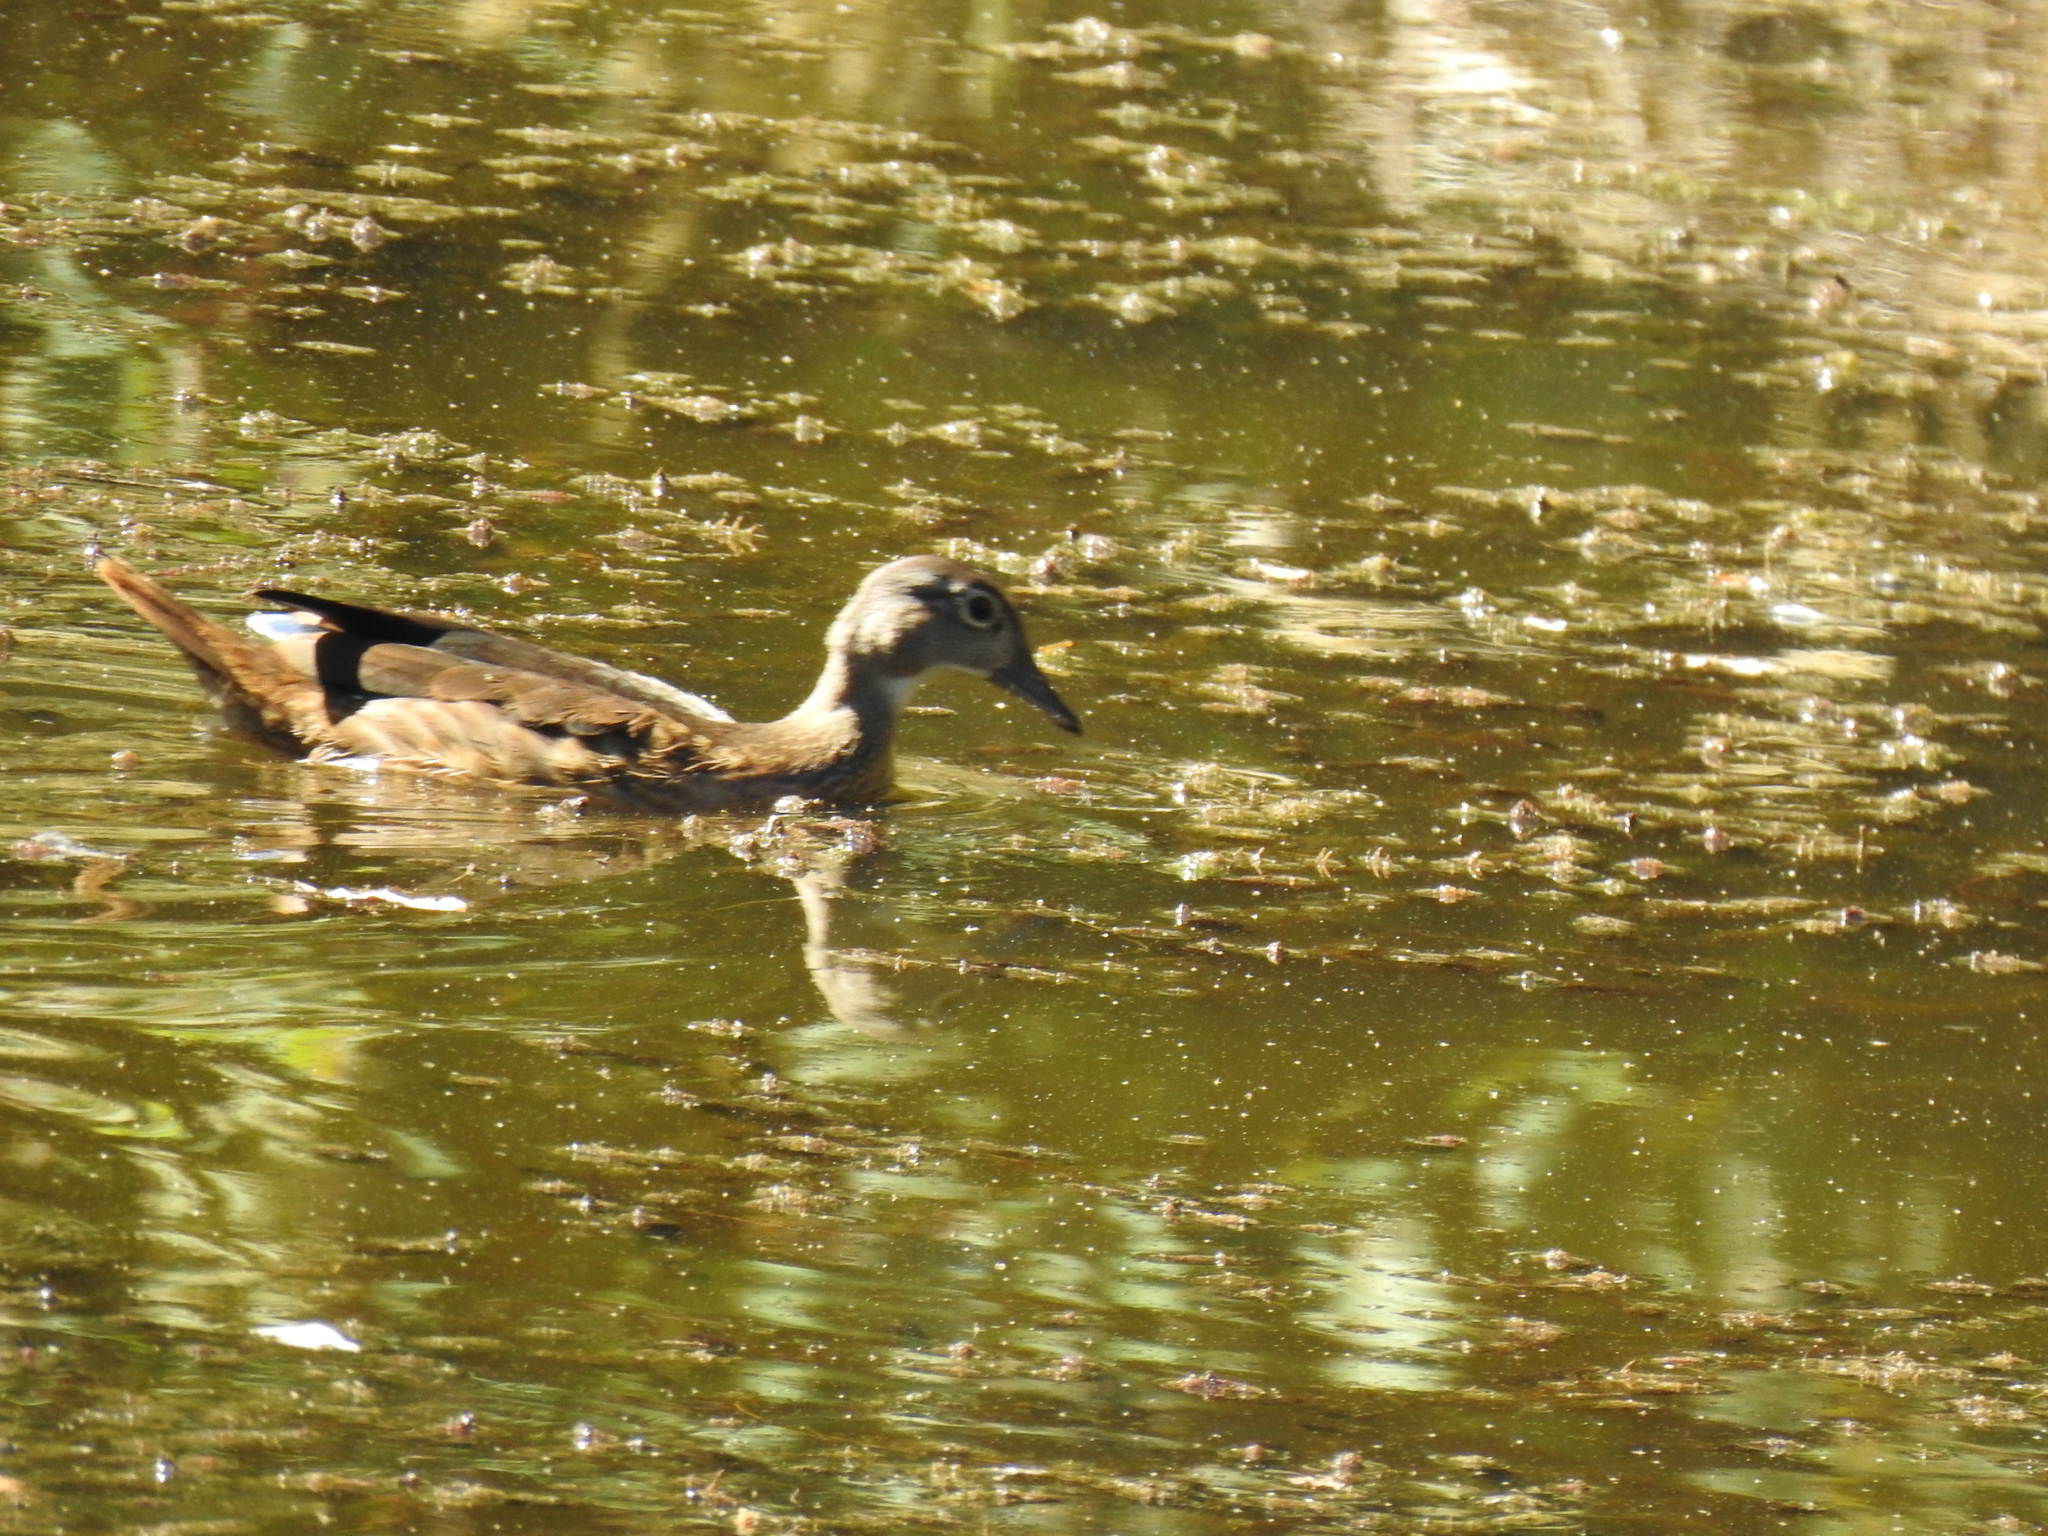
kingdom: Animalia
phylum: Chordata
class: Aves
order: Anseriformes
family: Anatidae
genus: Aix
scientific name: Aix sponsa
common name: Wood duck
